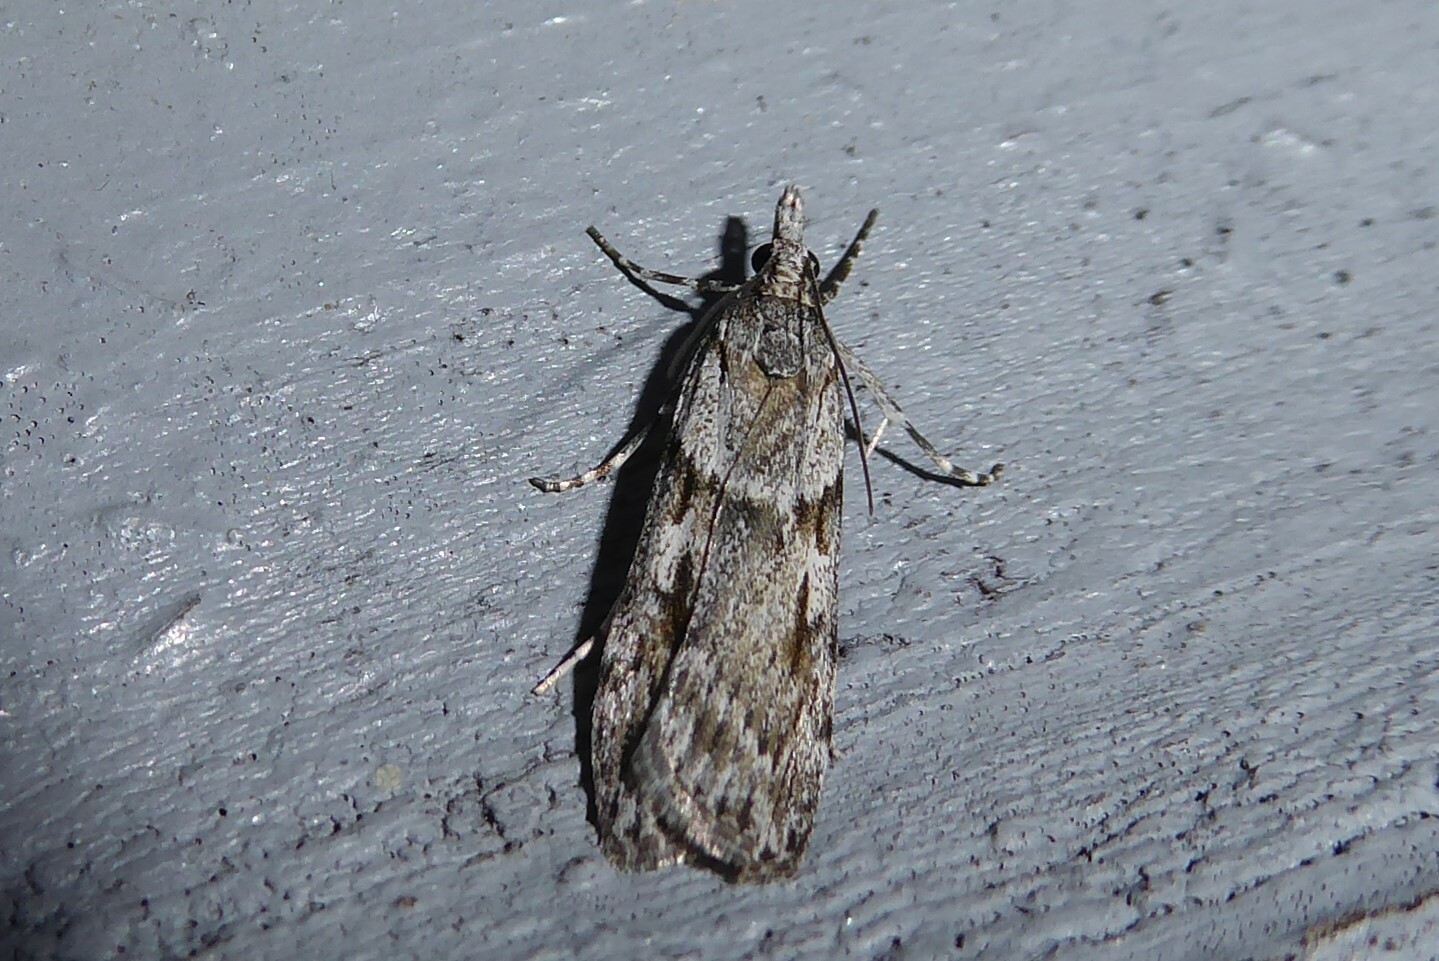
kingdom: Animalia
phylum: Arthropoda
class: Insecta
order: Lepidoptera
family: Crambidae
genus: Scoparia
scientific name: Scoparia halopis
